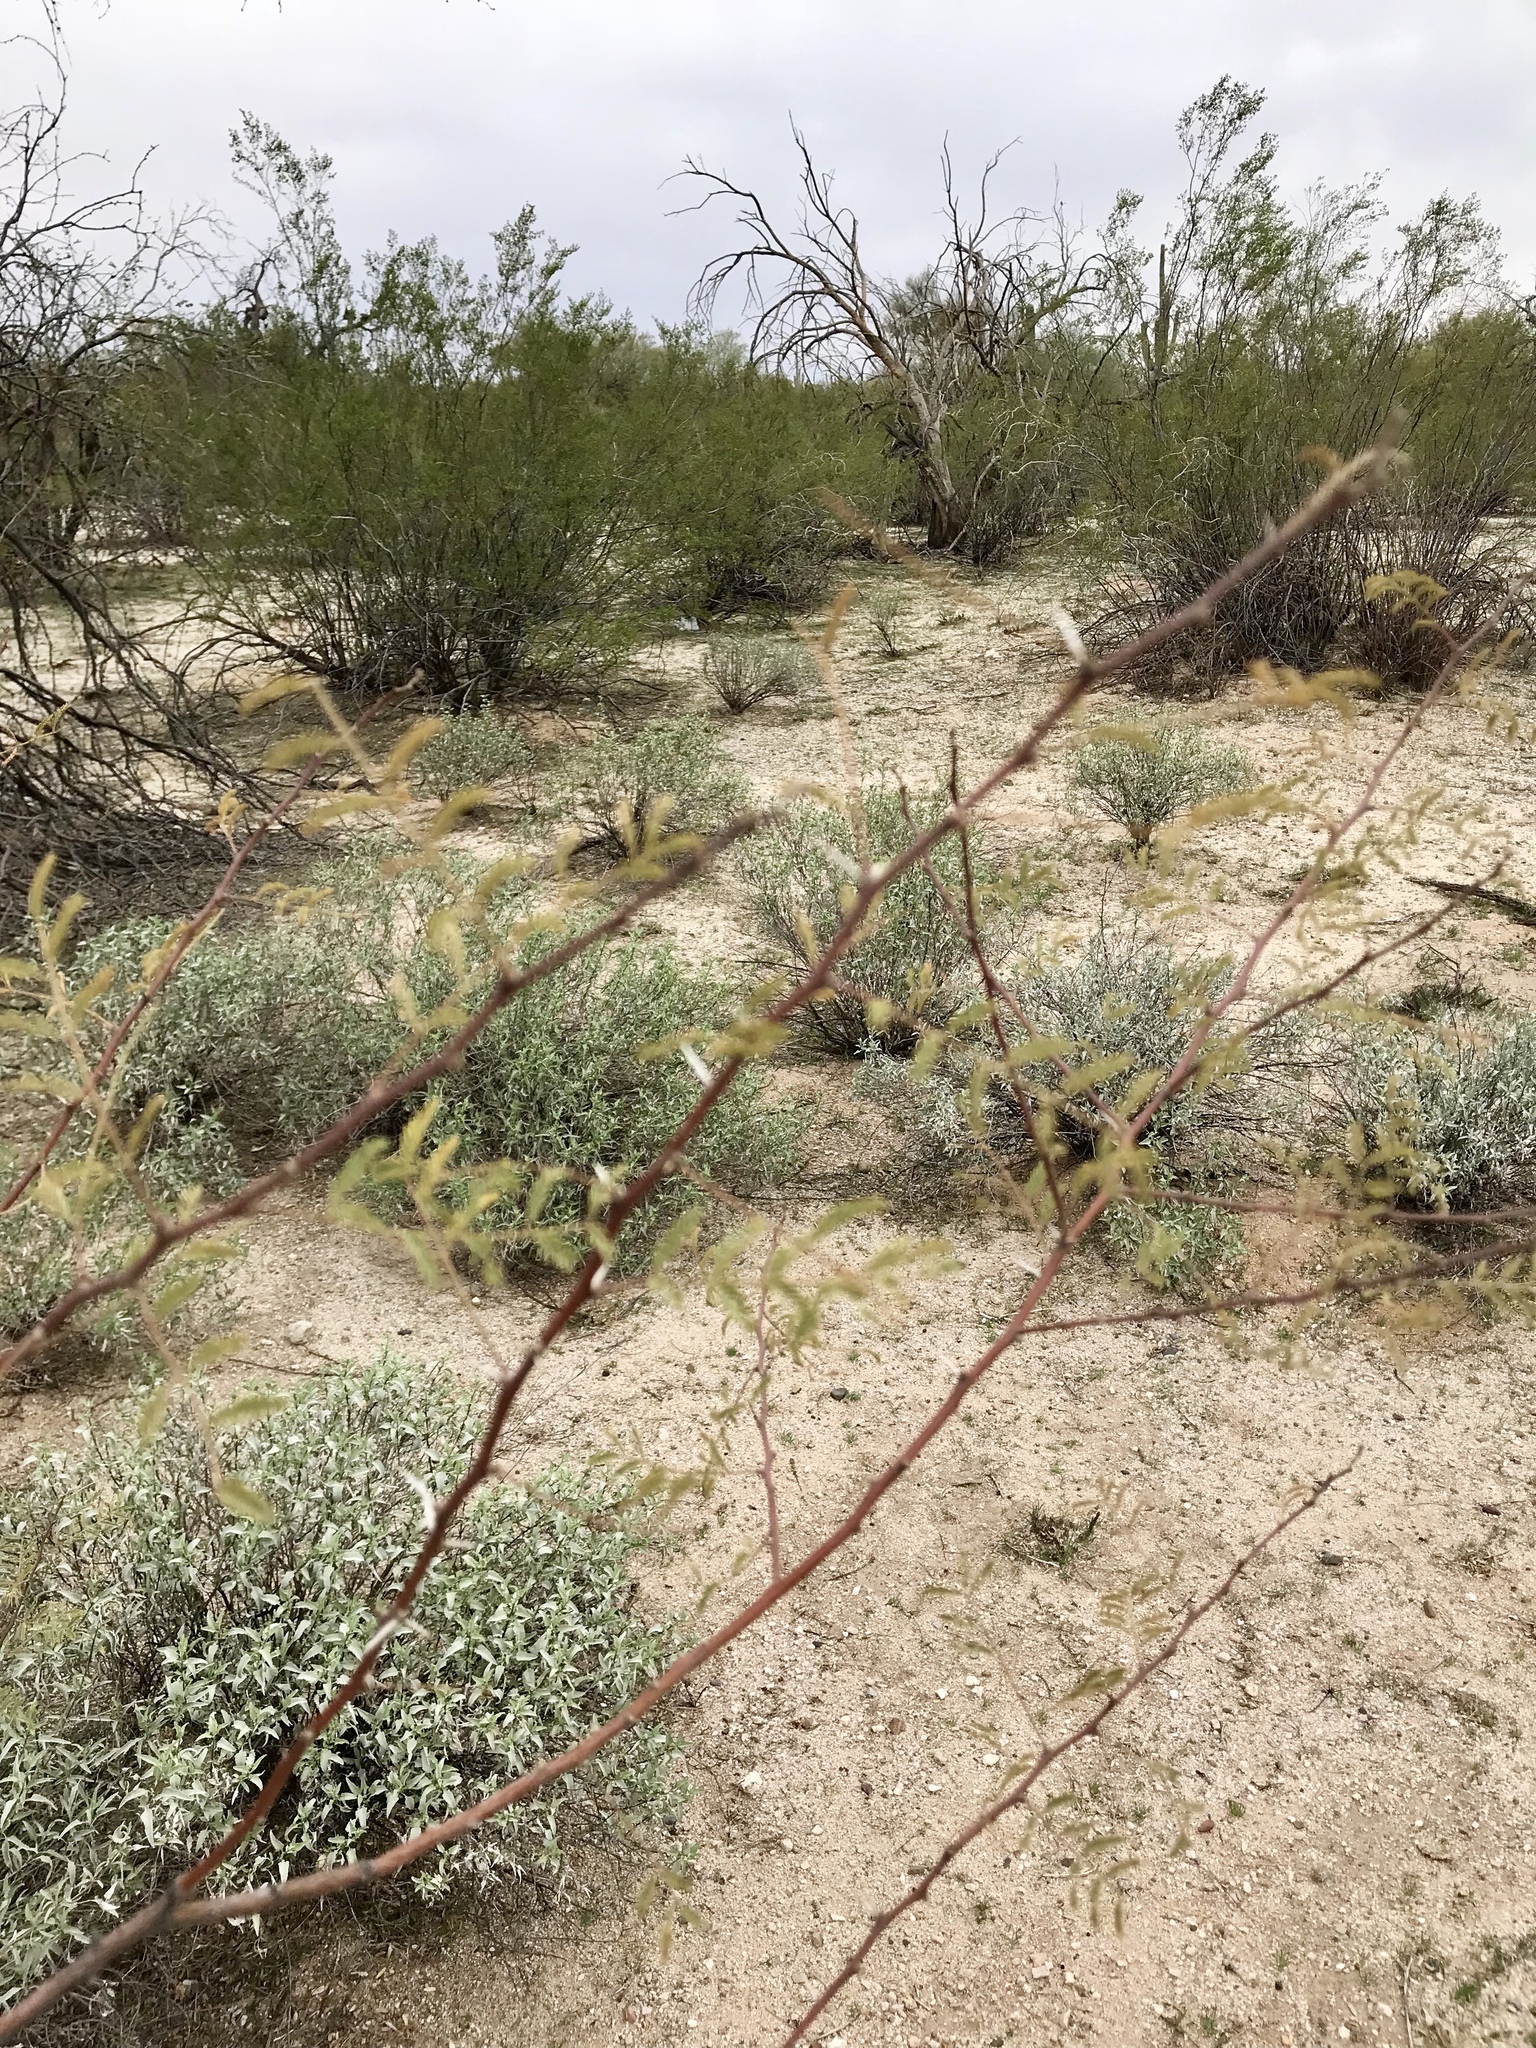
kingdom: Plantae
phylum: Tracheophyta
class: Magnoliopsida
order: Fabales
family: Fabaceae
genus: Vachellia
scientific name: Vachellia constricta
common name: Mescat acacia
